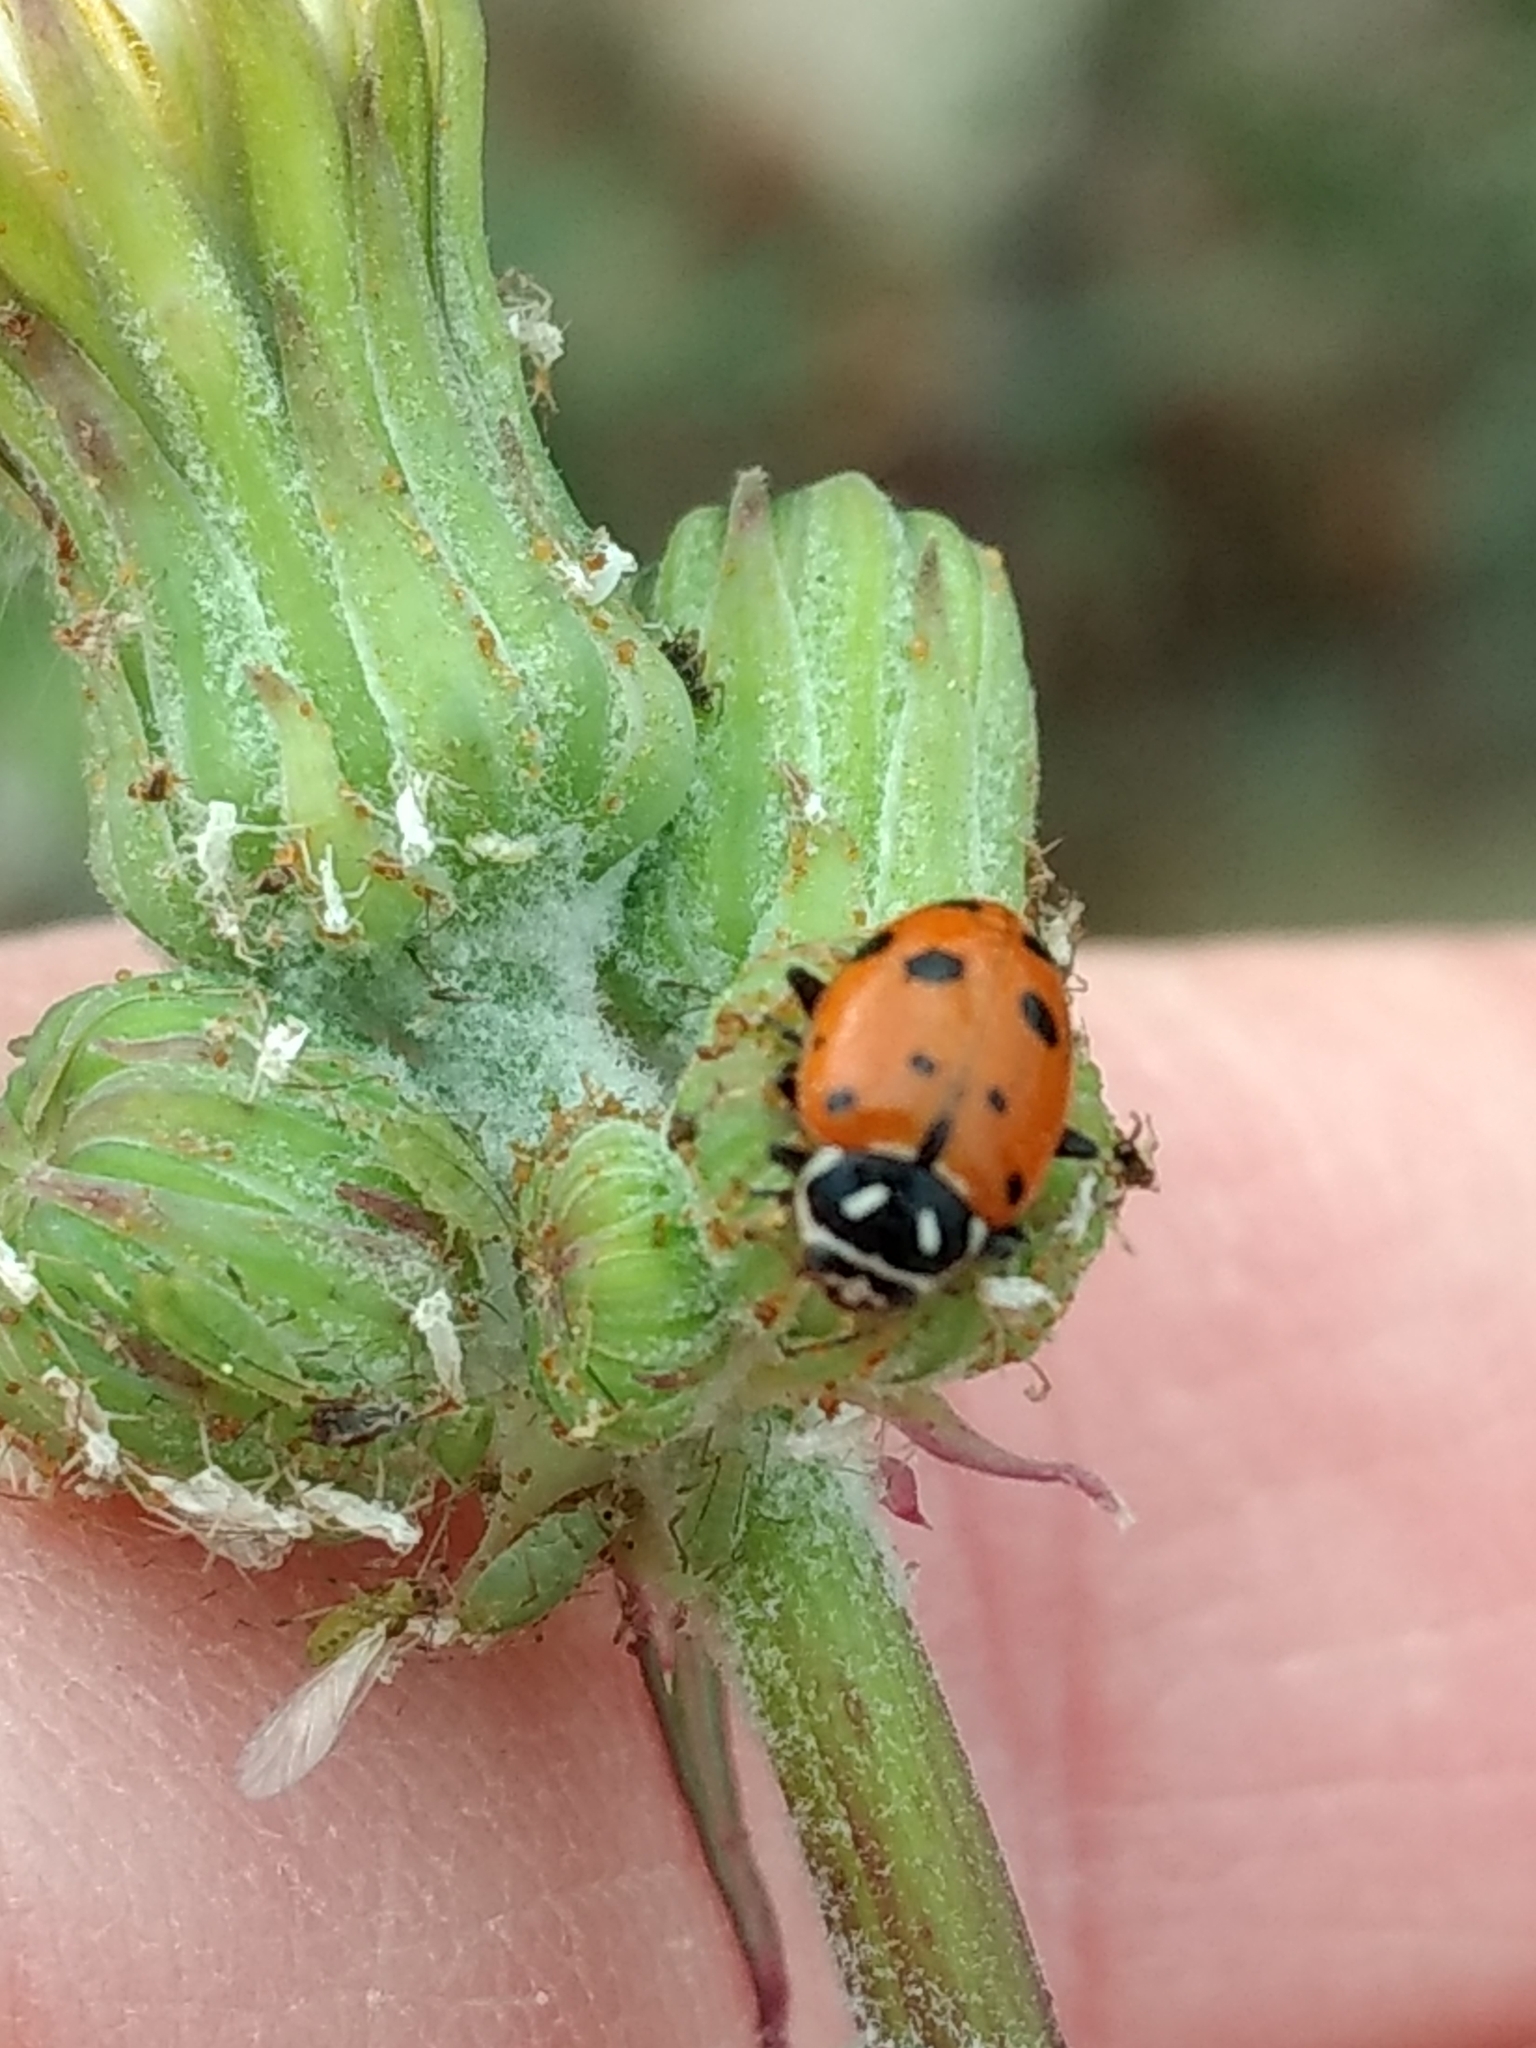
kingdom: Animalia
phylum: Arthropoda
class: Insecta
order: Coleoptera
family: Coccinellidae
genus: Hippodamia
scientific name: Hippodamia convergens
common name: Convergent lady beetle
